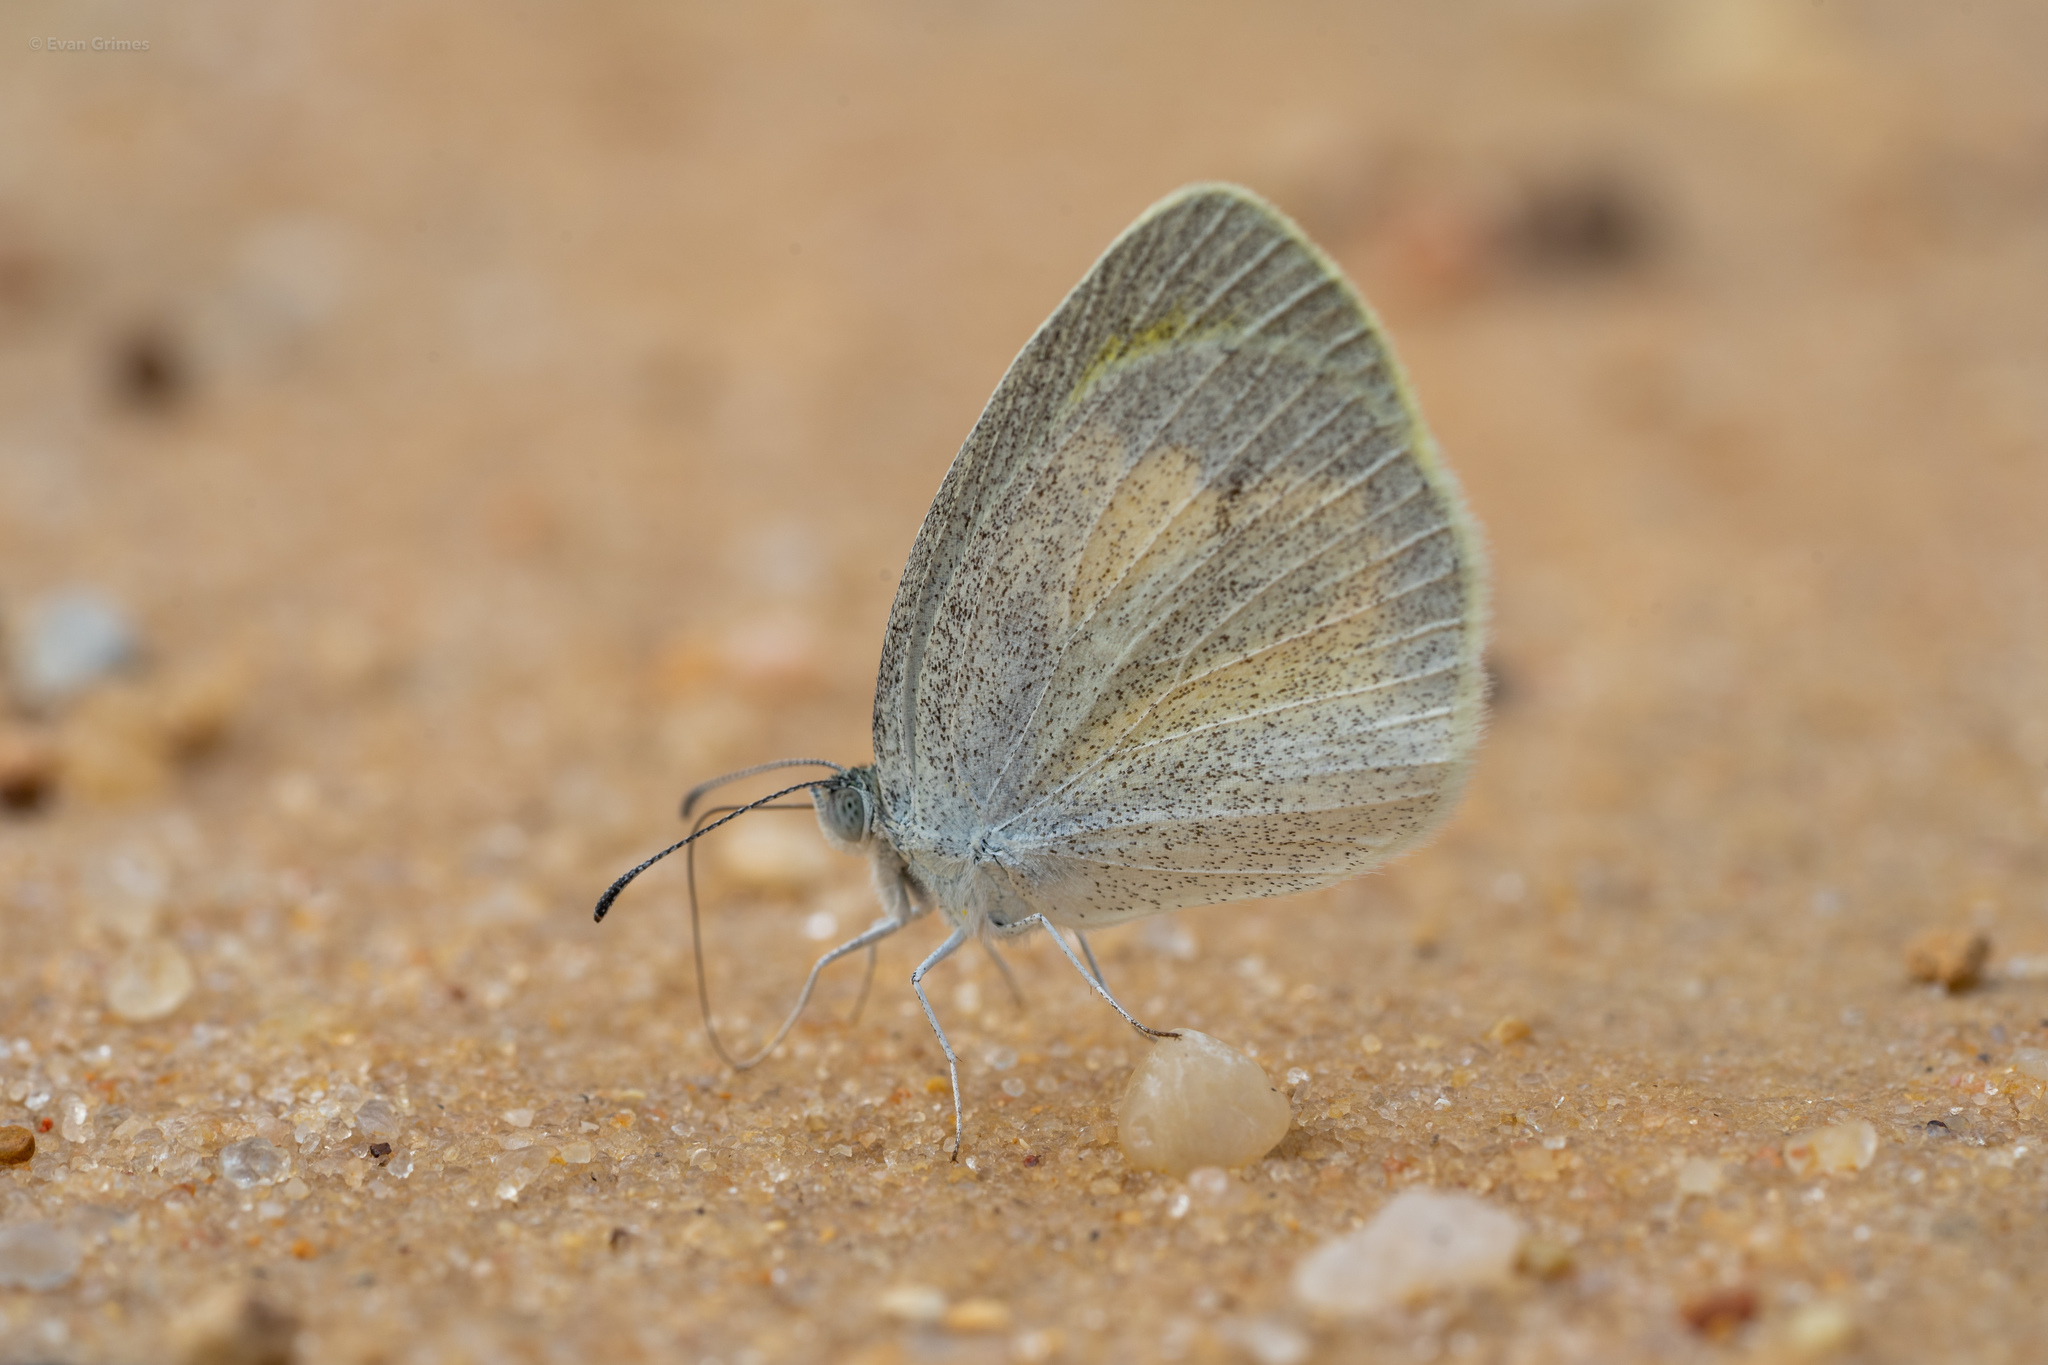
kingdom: Animalia
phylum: Arthropoda
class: Insecta
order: Lepidoptera
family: Pieridae
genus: Eurema
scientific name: Eurema daira
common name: Barred sulphur
